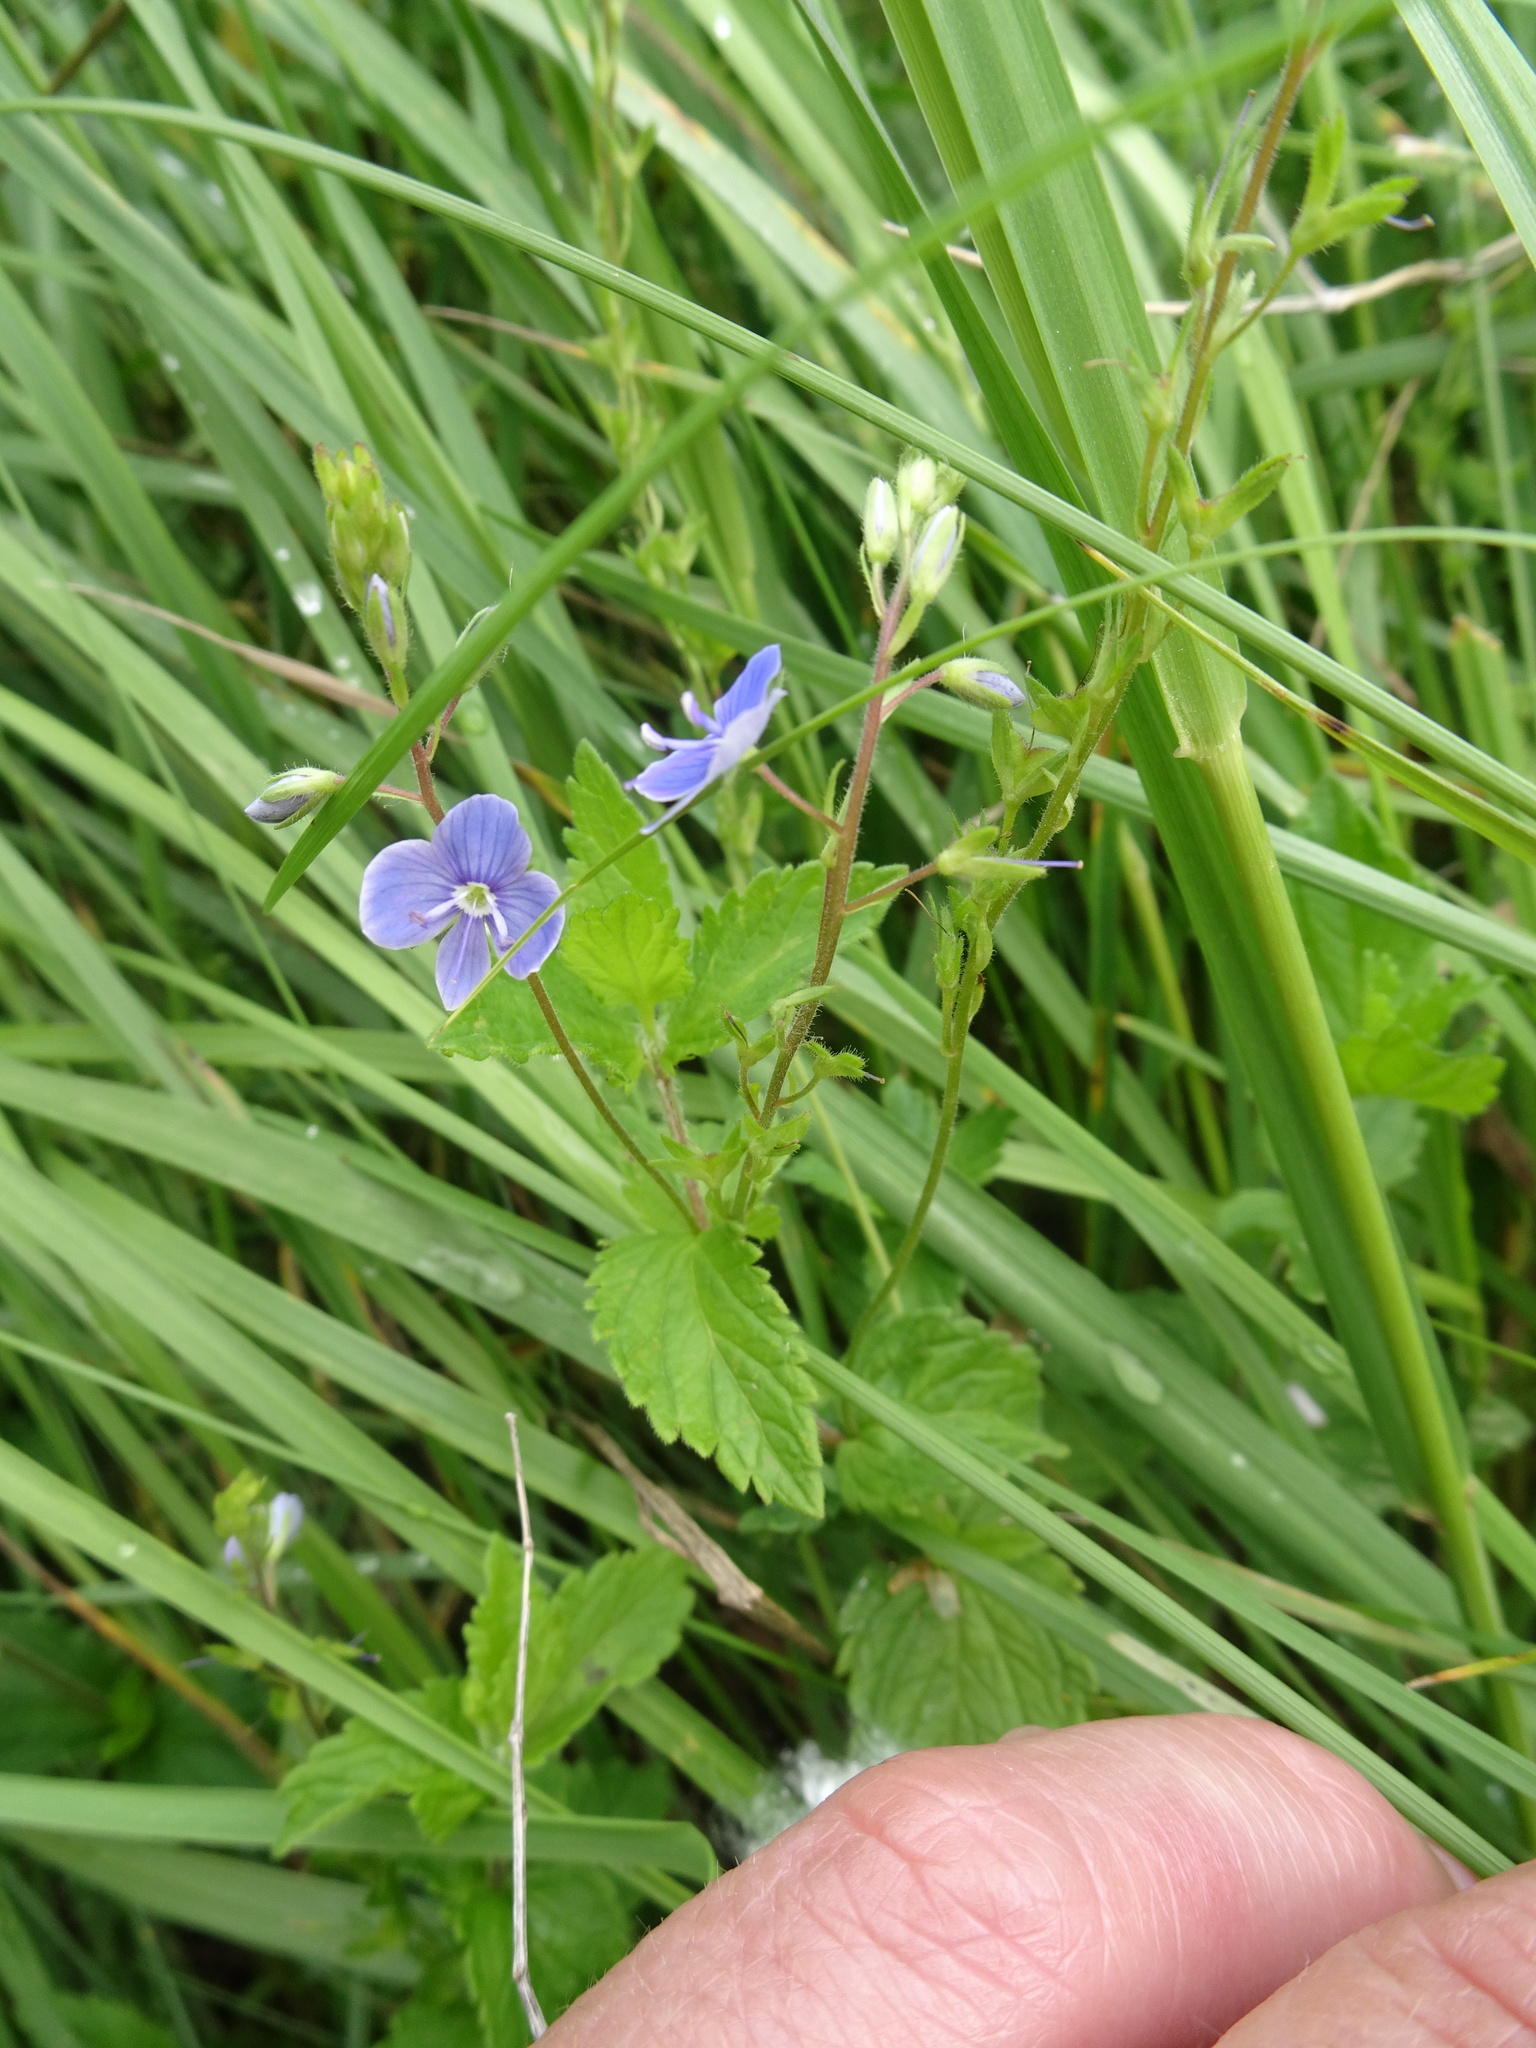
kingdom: Plantae
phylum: Tracheophyta
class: Magnoliopsida
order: Lamiales
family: Plantaginaceae
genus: Veronica
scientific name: Veronica chamaedrys
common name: Germander speedwell
